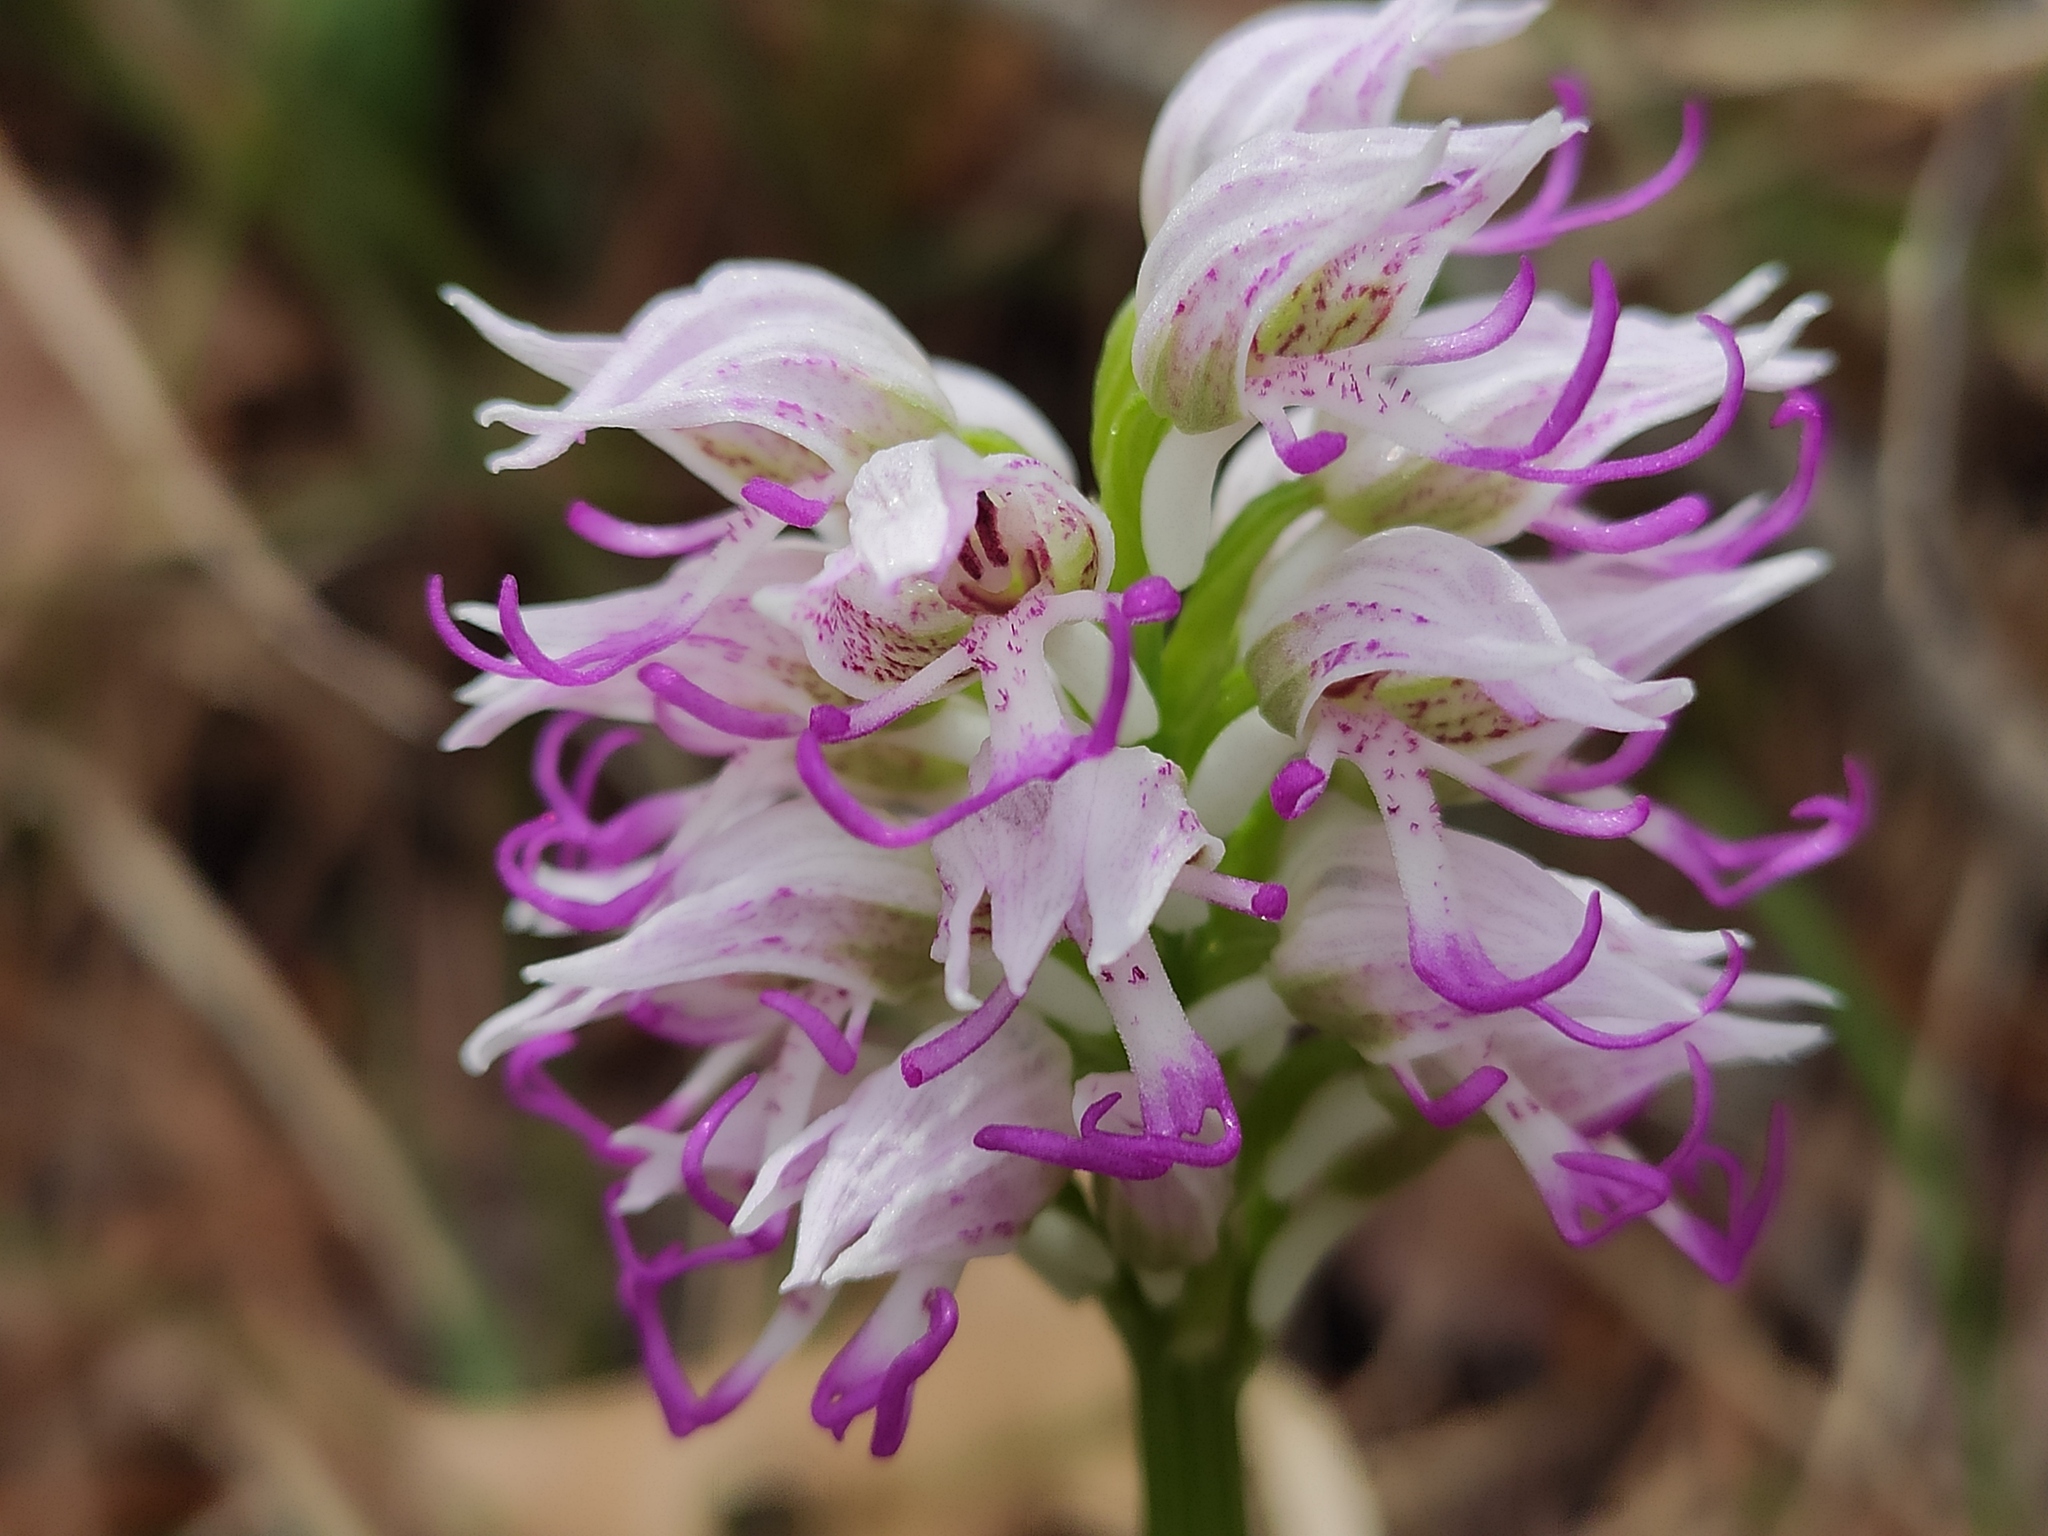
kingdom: Plantae
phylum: Tracheophyta
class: Liliopsida
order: Asparagales
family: Orchidaceae
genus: Orchis
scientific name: Orchis simia
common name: Monkey orchid
